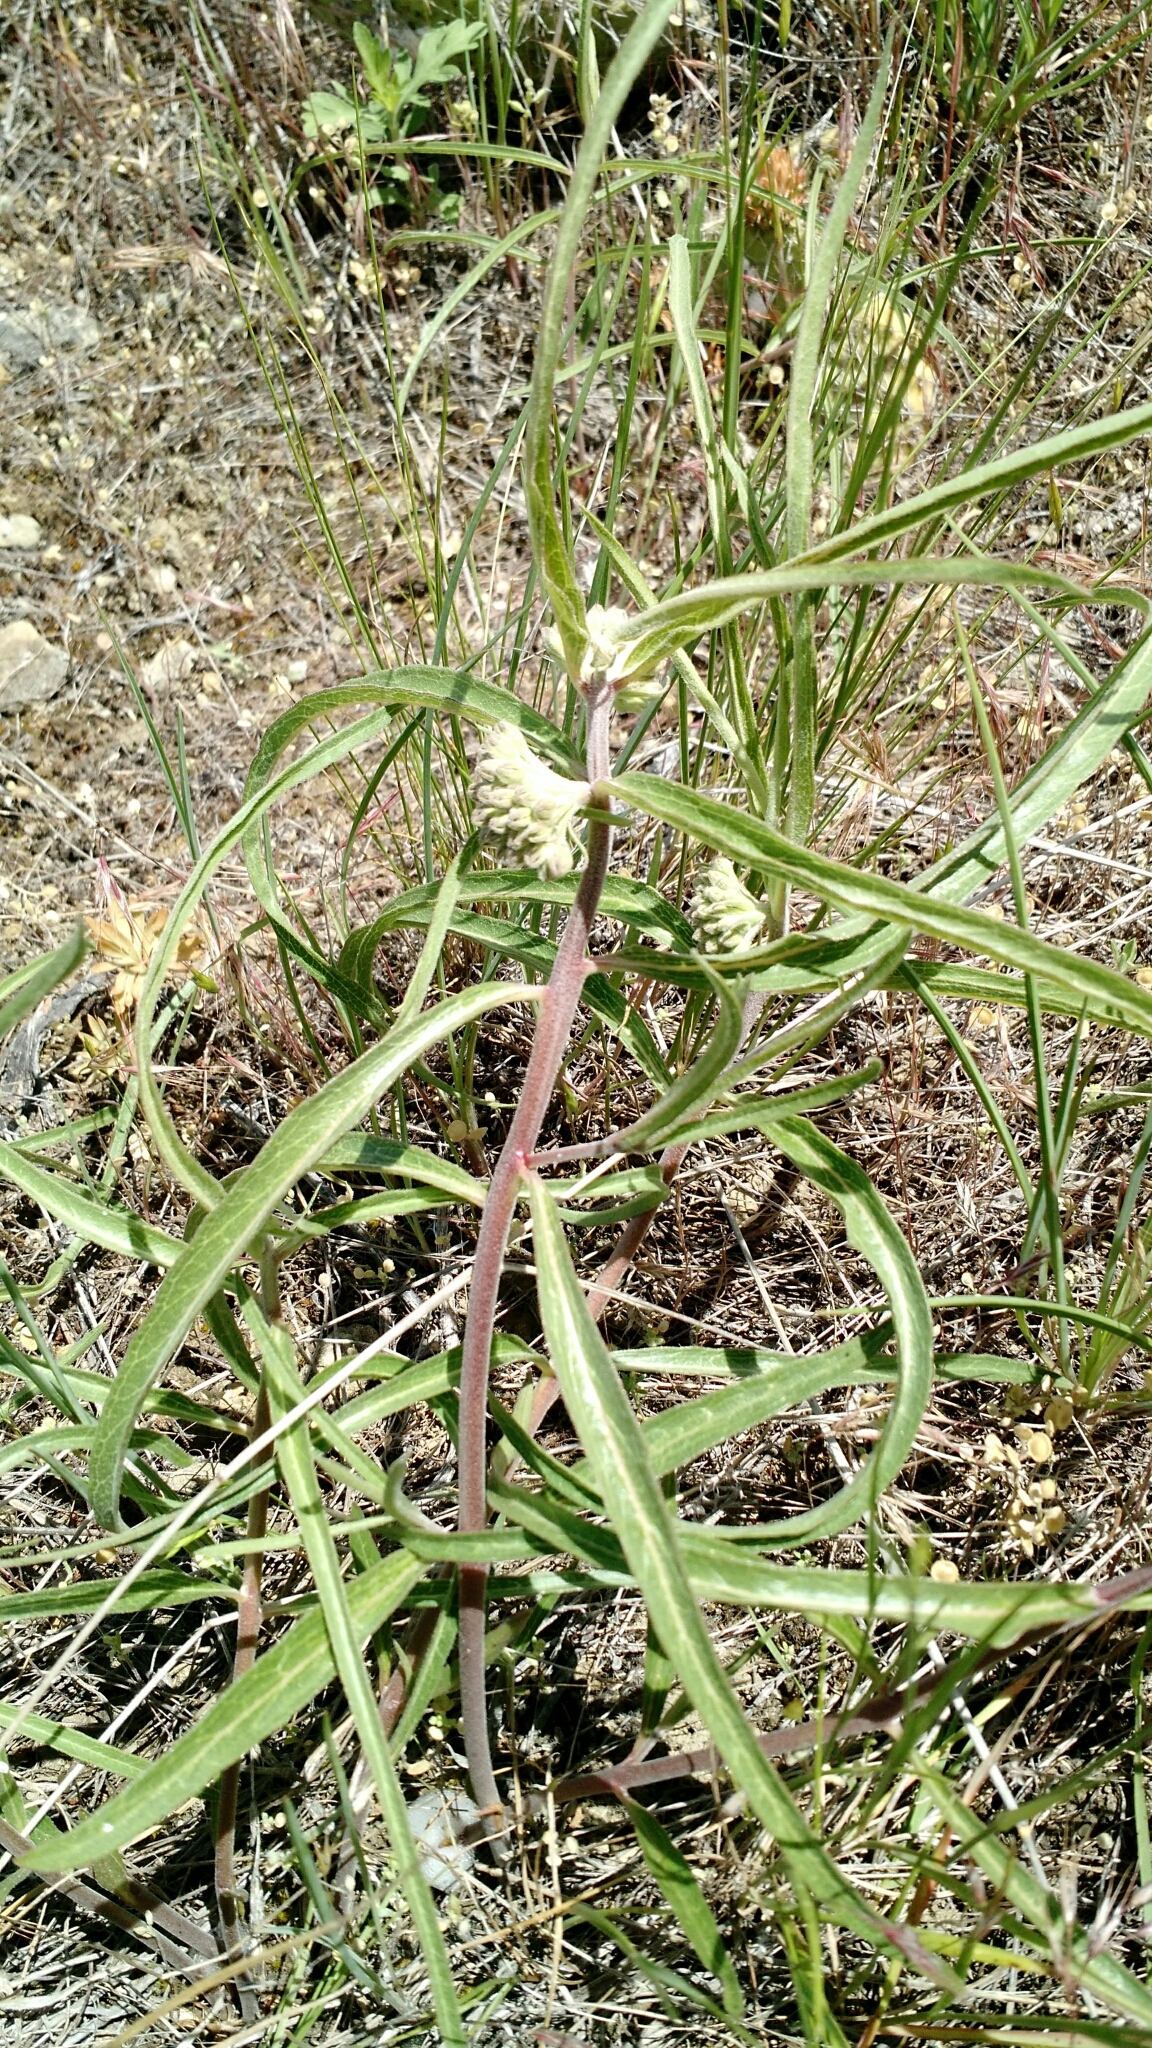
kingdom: Plantae
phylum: Tracheophyta
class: Magnoliopsida
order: Gentianales
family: Apocynaceae
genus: Asclepias
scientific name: Asclepias viridiflora
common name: Green comet milkweed
